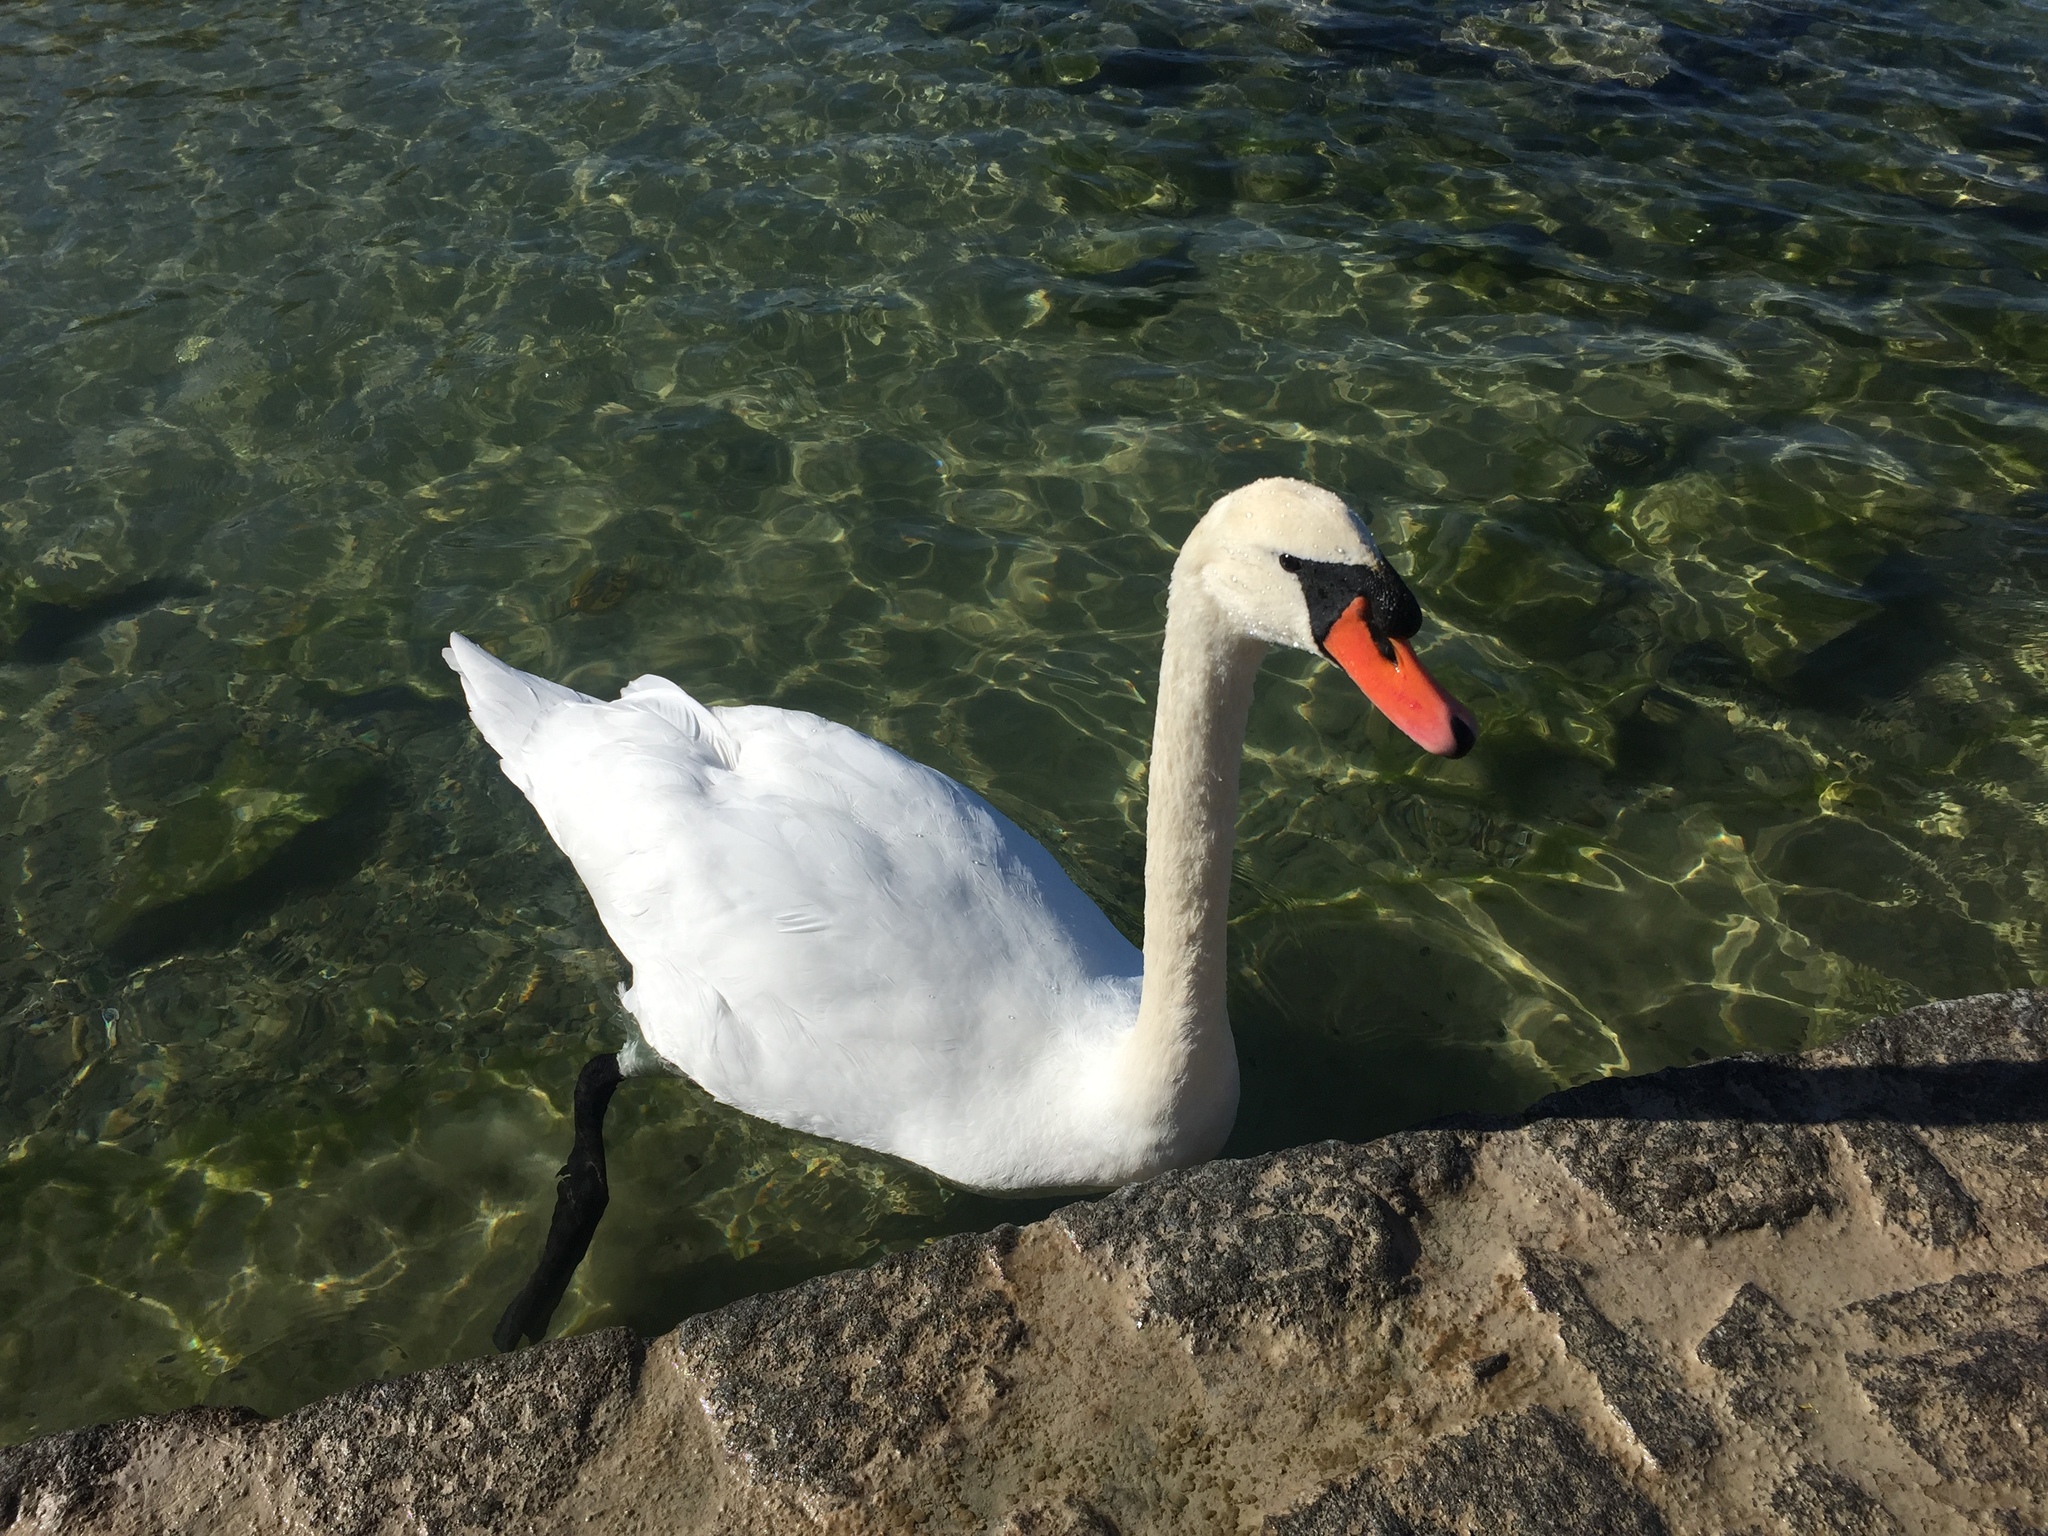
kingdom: Animalia
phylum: Chordata
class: Aves
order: Anseriformes
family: Anatidae
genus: Cygnus
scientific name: Cygnus olor
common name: Mute swan
